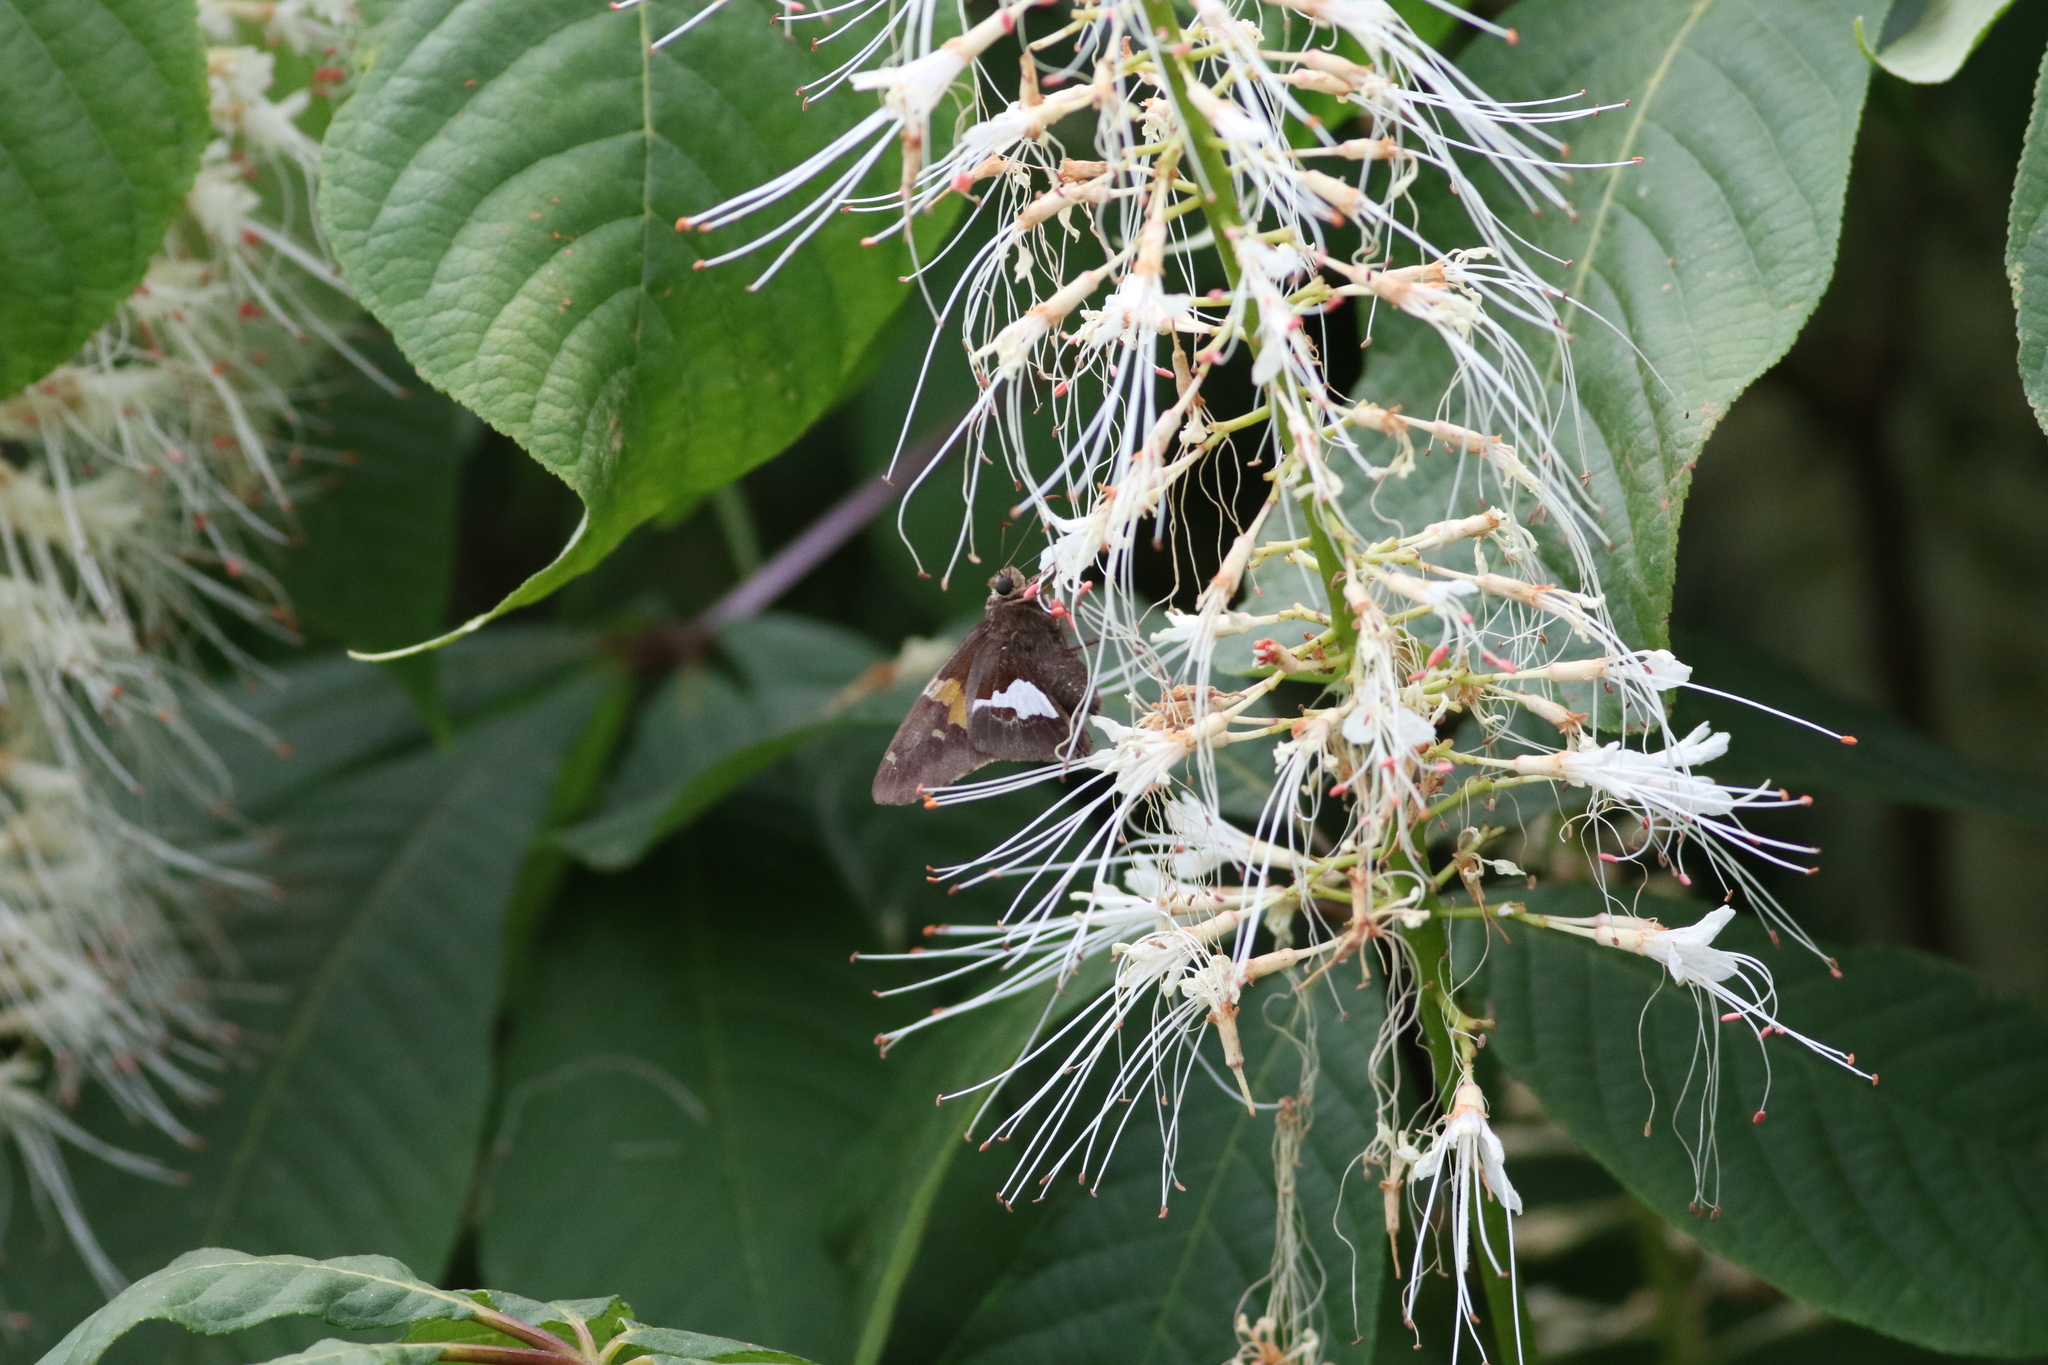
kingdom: Animalia
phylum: Arthropoda
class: Insecta
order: Lepidoptera
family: Hesperiidae
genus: Epargyreus
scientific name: Epargyreus clarus
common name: Silver-spotted skipper
